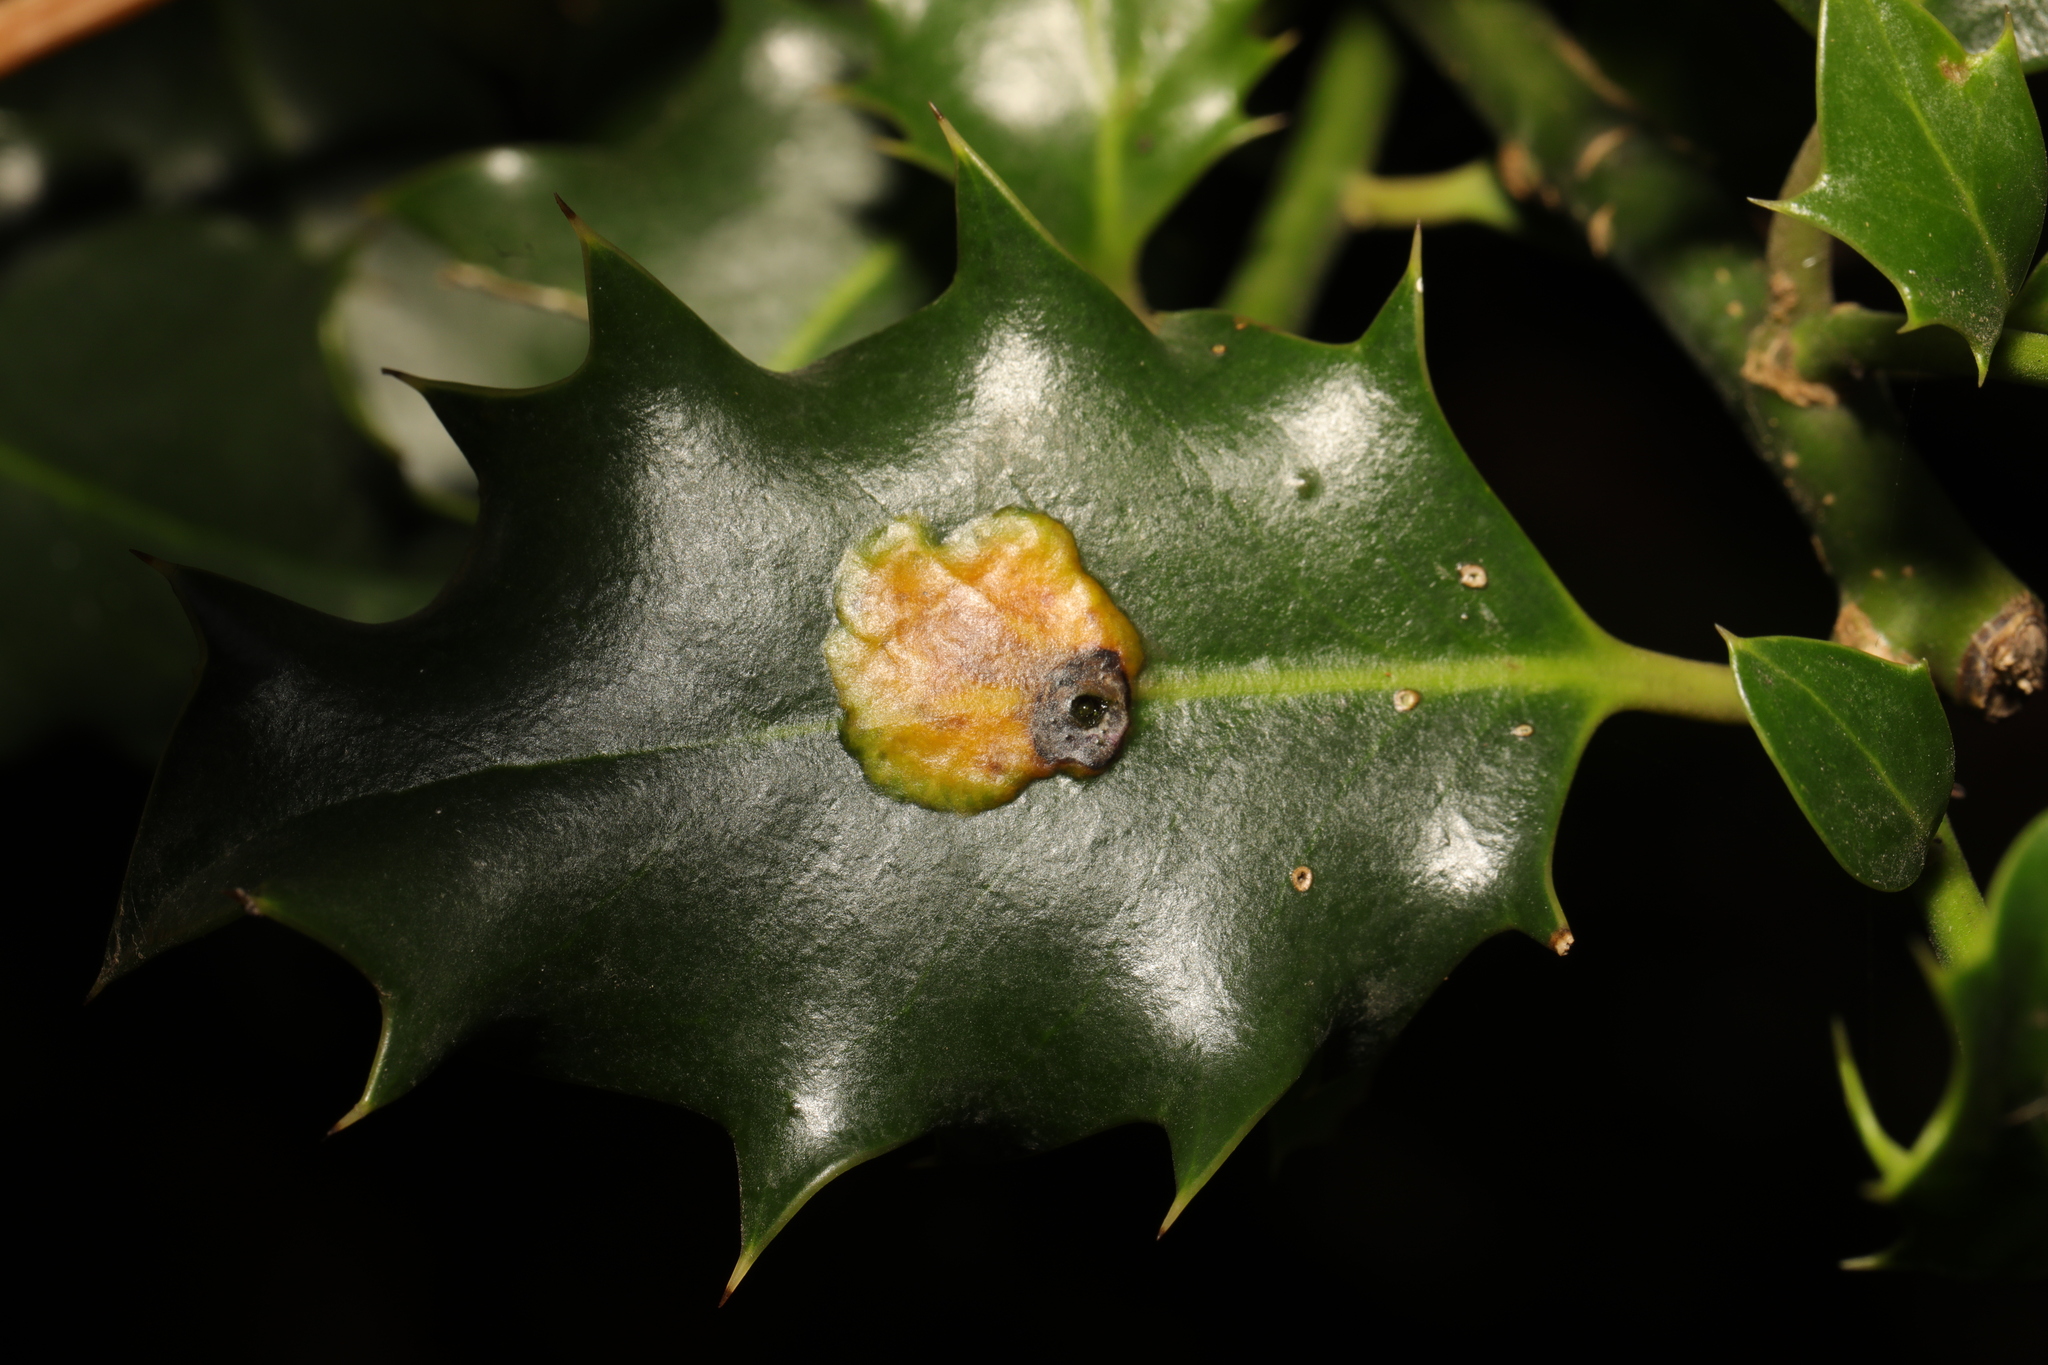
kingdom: Animalia
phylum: Arthropoda
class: Insecta
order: Diptera
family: Agromyzidae
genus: Phytomyza
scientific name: Phytomyza ilicis
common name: Holly leafminer
